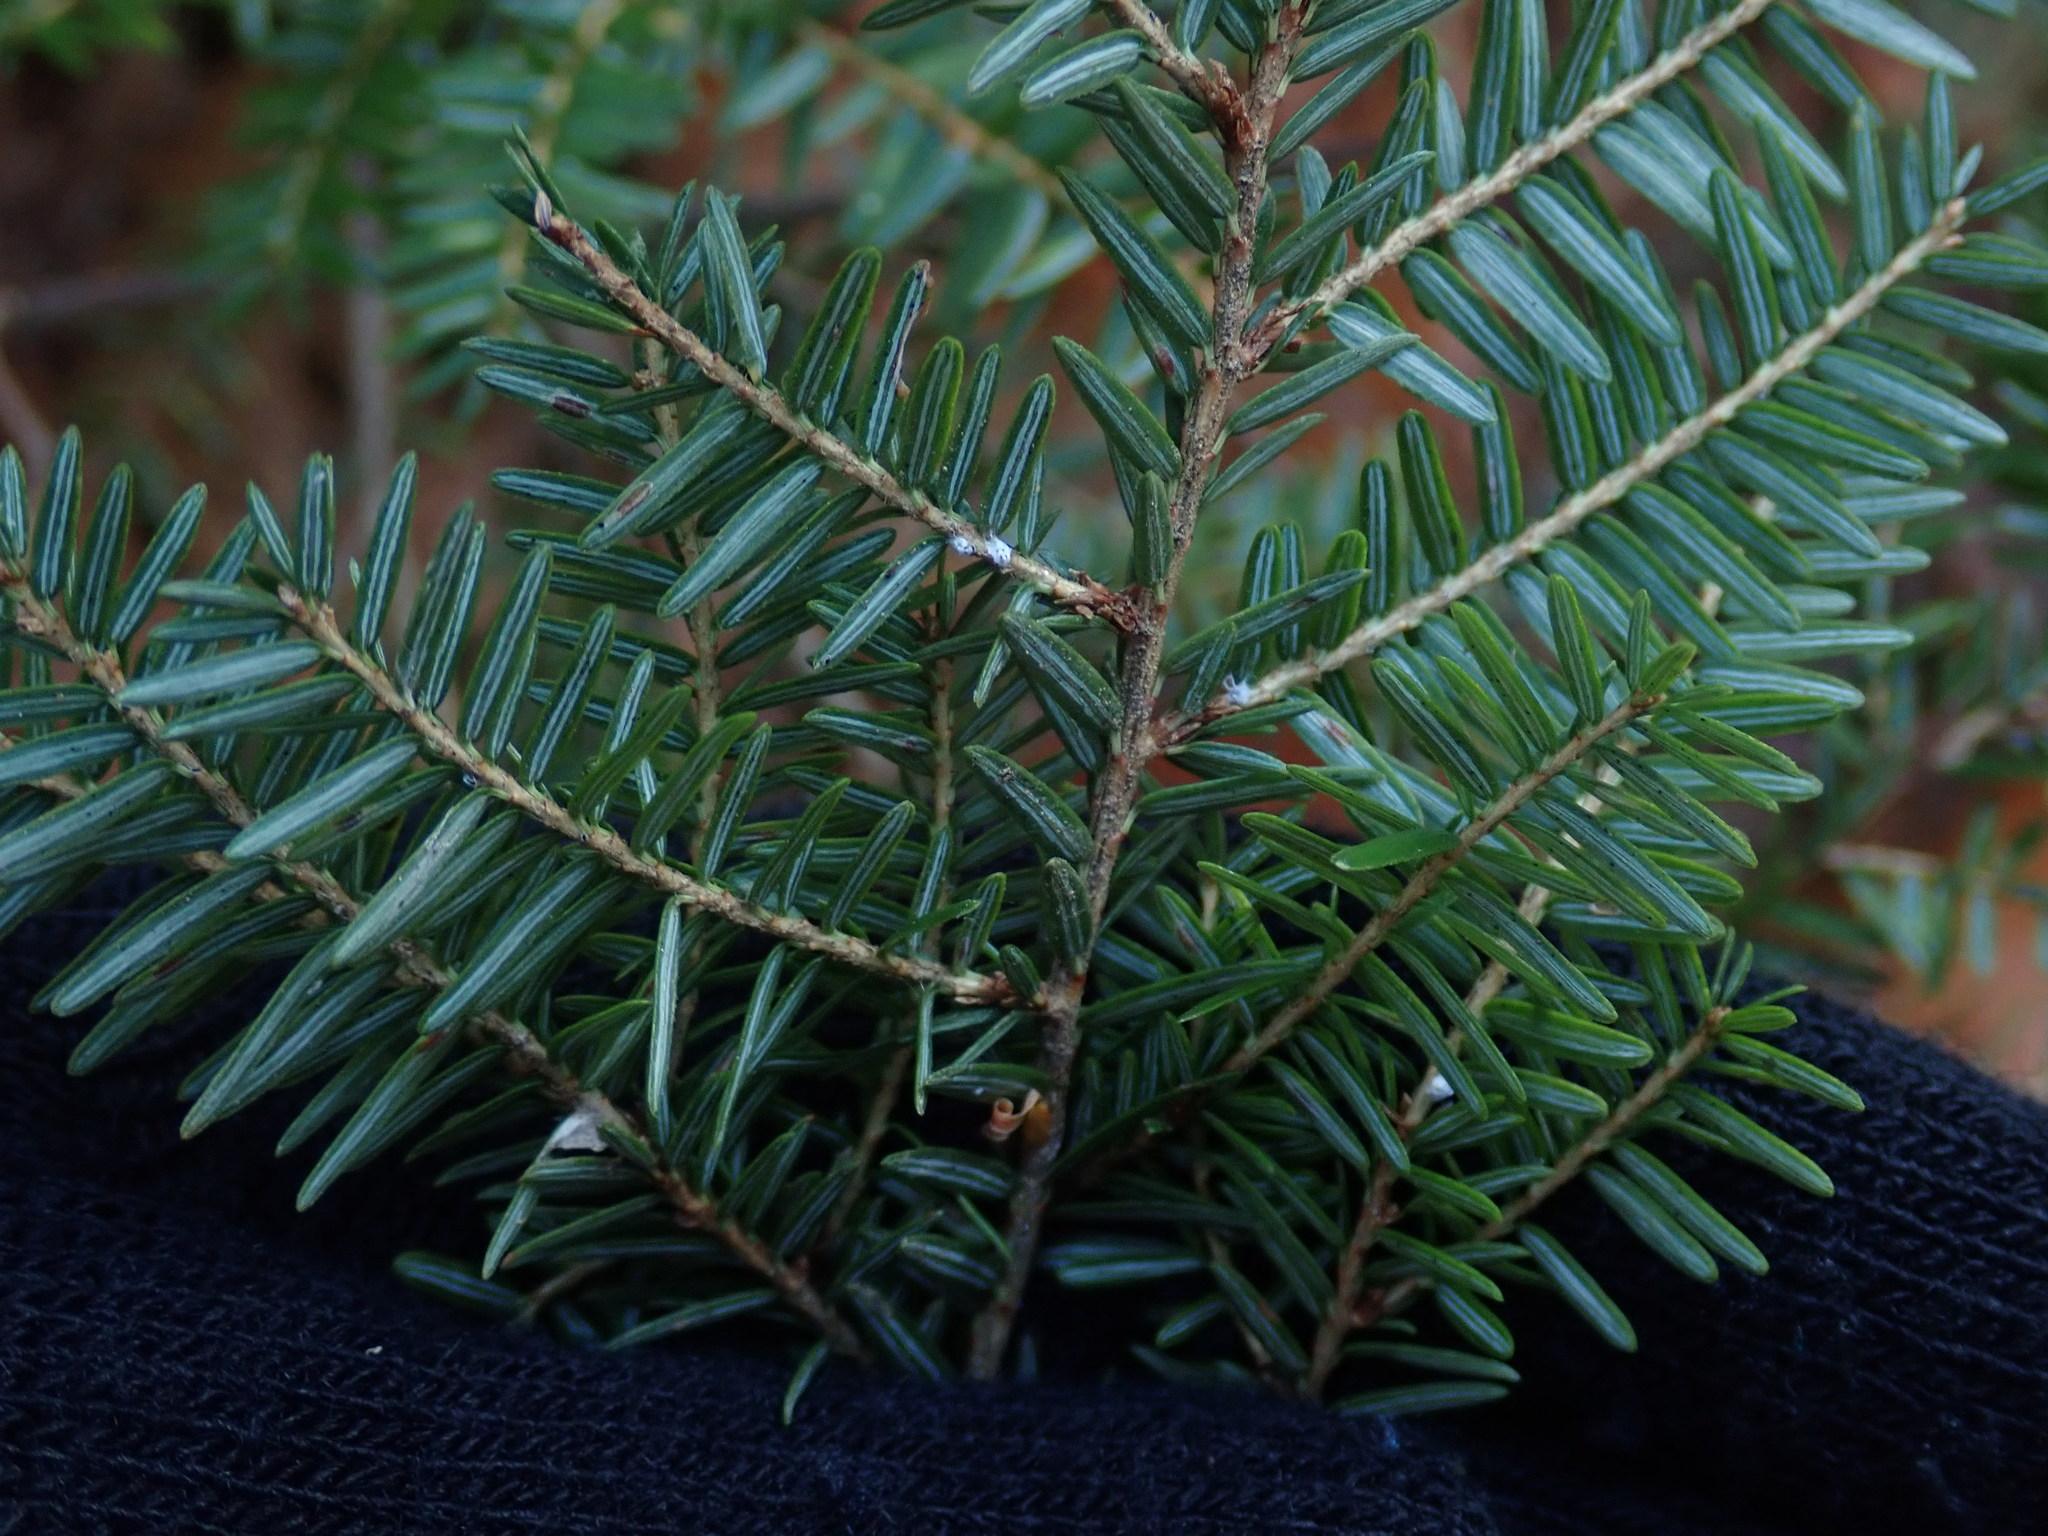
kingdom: Plantae
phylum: Tracheophyta
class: Pinopsida
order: Pinales
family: Pinaceae
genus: Tsuga
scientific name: Tsuga canadensis
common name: Eastern hemlock
